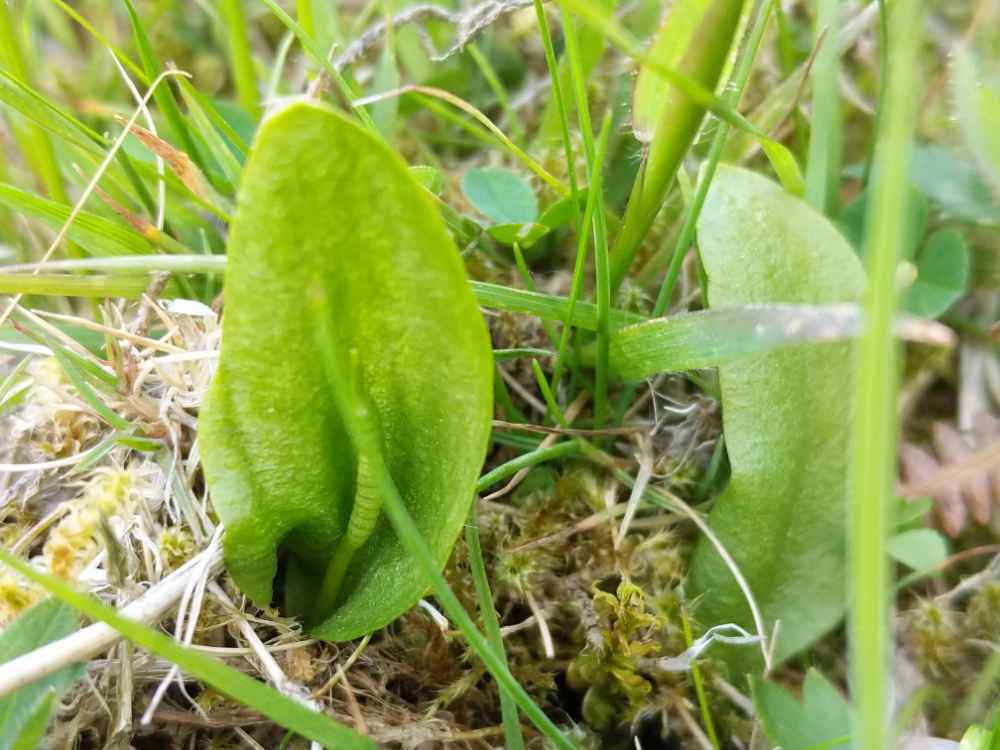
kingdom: Plantae
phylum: Tracheophyta
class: Polypodiopsida
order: Ophioglossales
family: Ophioglossaceae
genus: Ophioglossum
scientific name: Ophioglossum vulgatum
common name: Adder's-tongue
